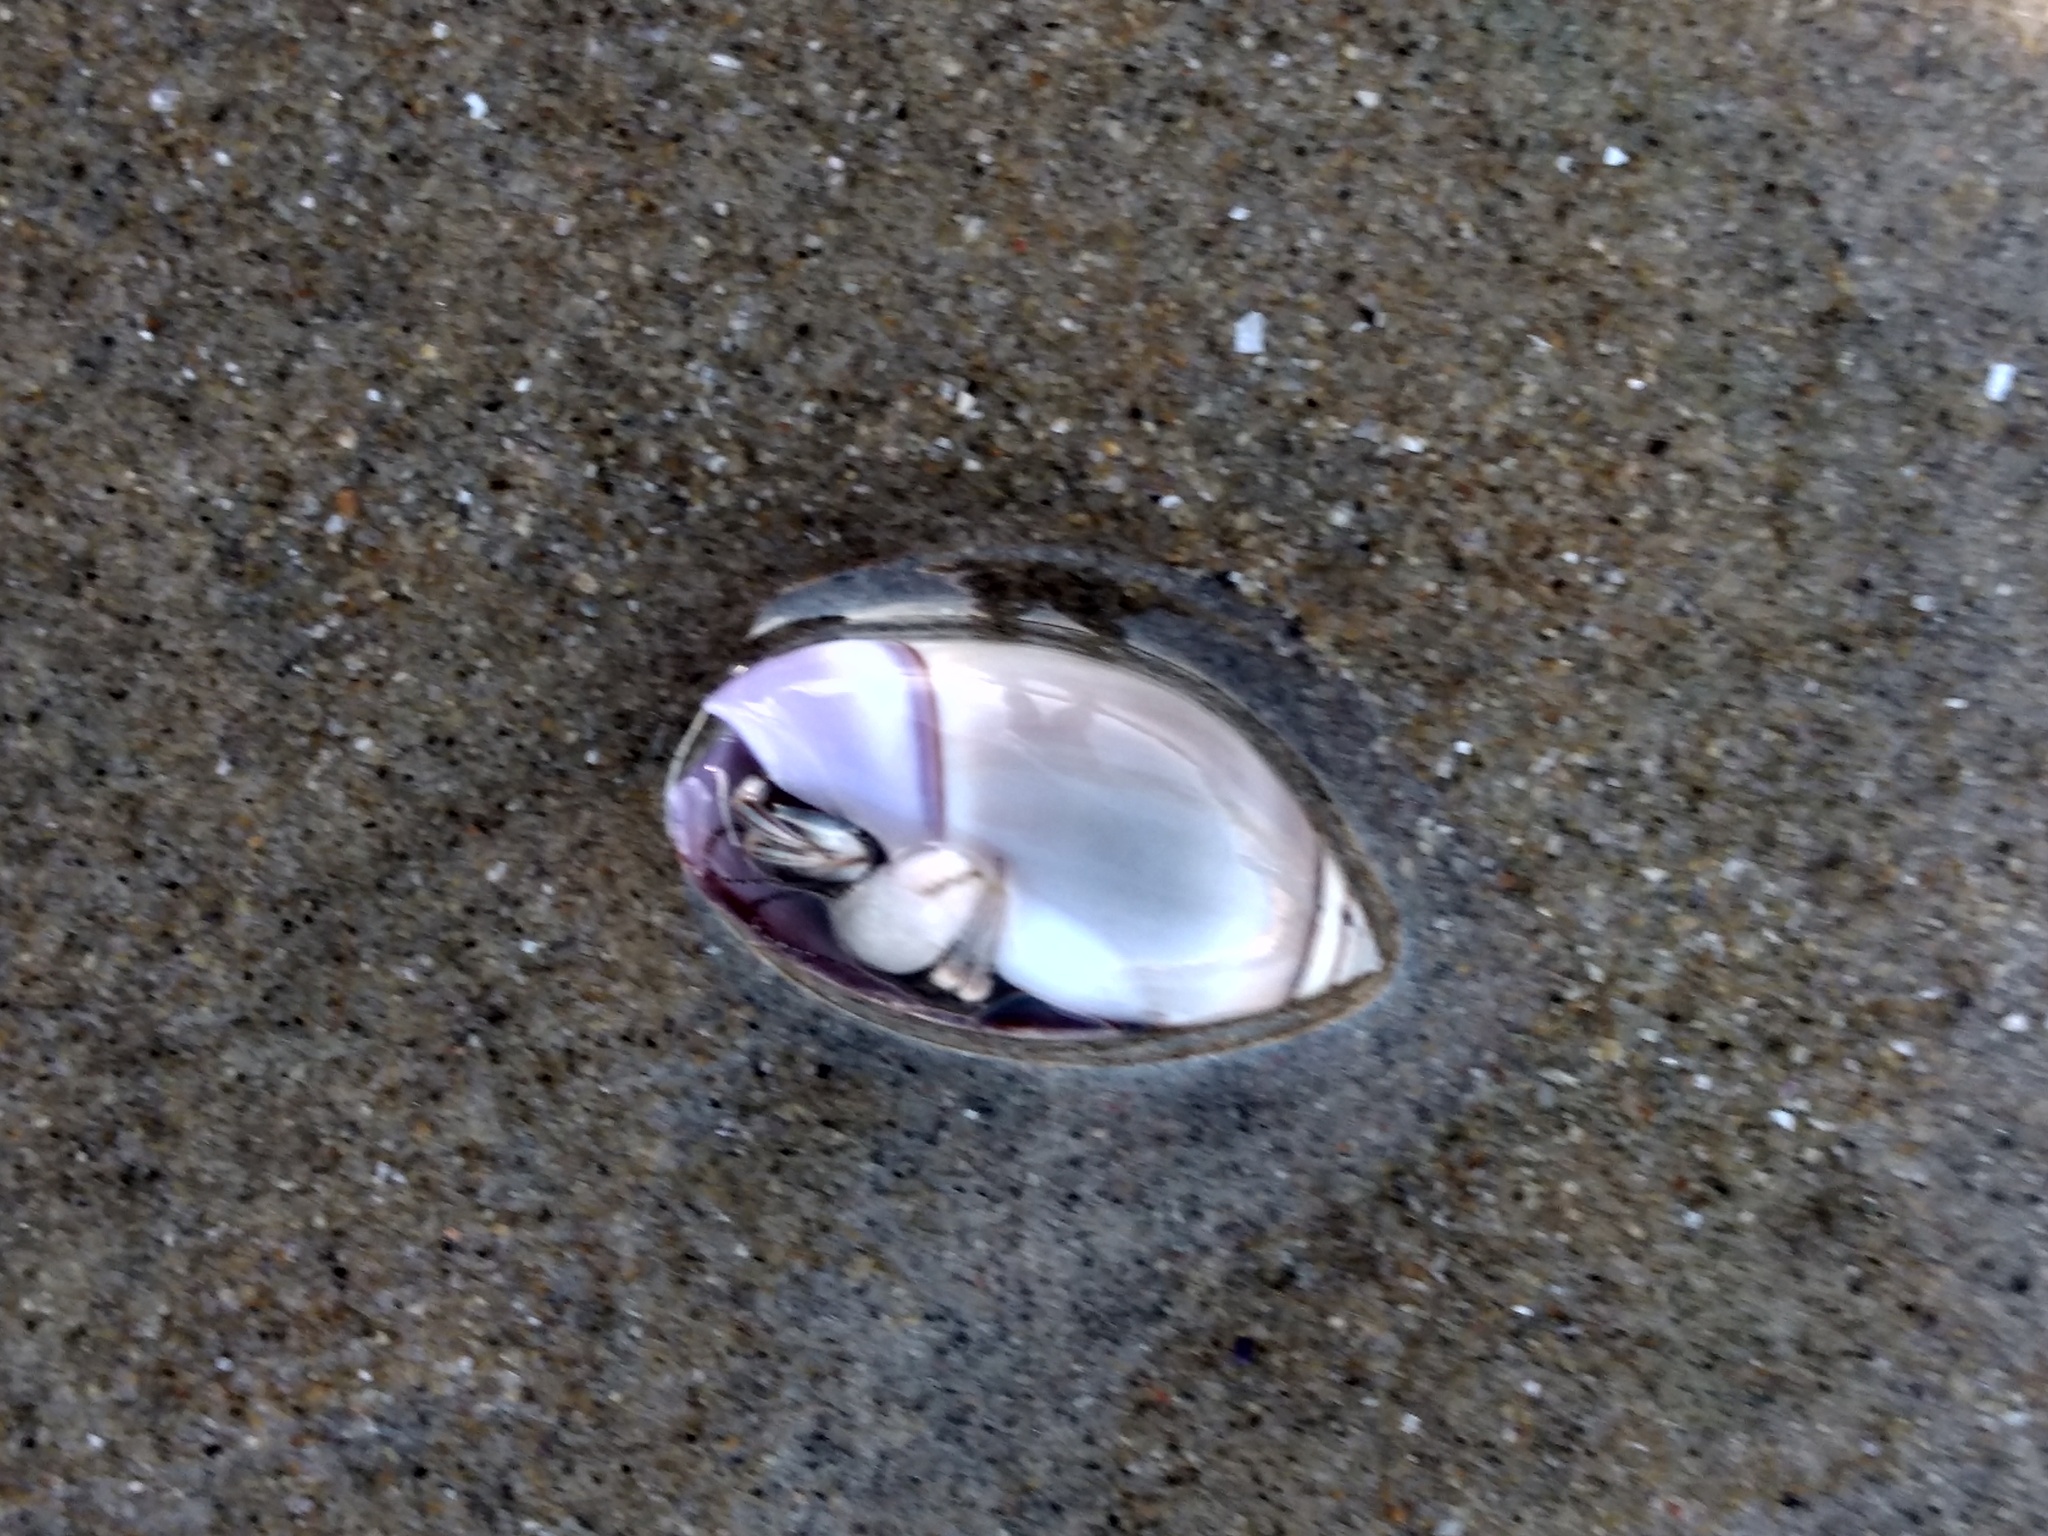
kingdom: Animalia
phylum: Mollusca
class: Gastropoda
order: Neogastropoda
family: Olividae
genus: Callianax
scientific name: Callianax biplicata
